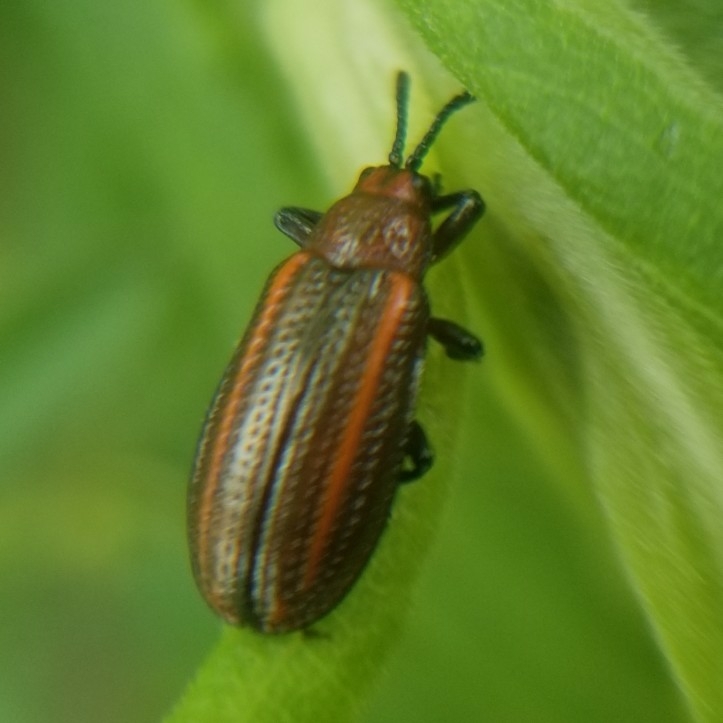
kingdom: Animalia
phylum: Arthropoda
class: Insecta
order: Coleoptera
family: Chrysomelidae
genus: Microrhopala
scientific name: Microrhopala vittata
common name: Goldenrod leaf miner beetle
